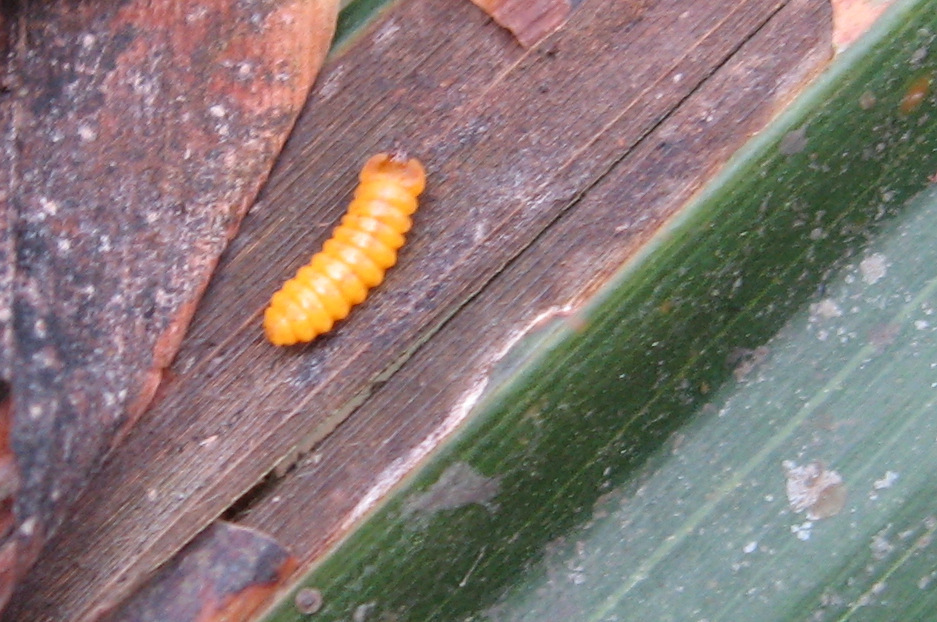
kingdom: Animalia
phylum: Arthropoda
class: Insecta
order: Coleoptera
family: Chrysomelidae
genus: Coelaenomenodera
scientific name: Coelaenomenodera lameensis
